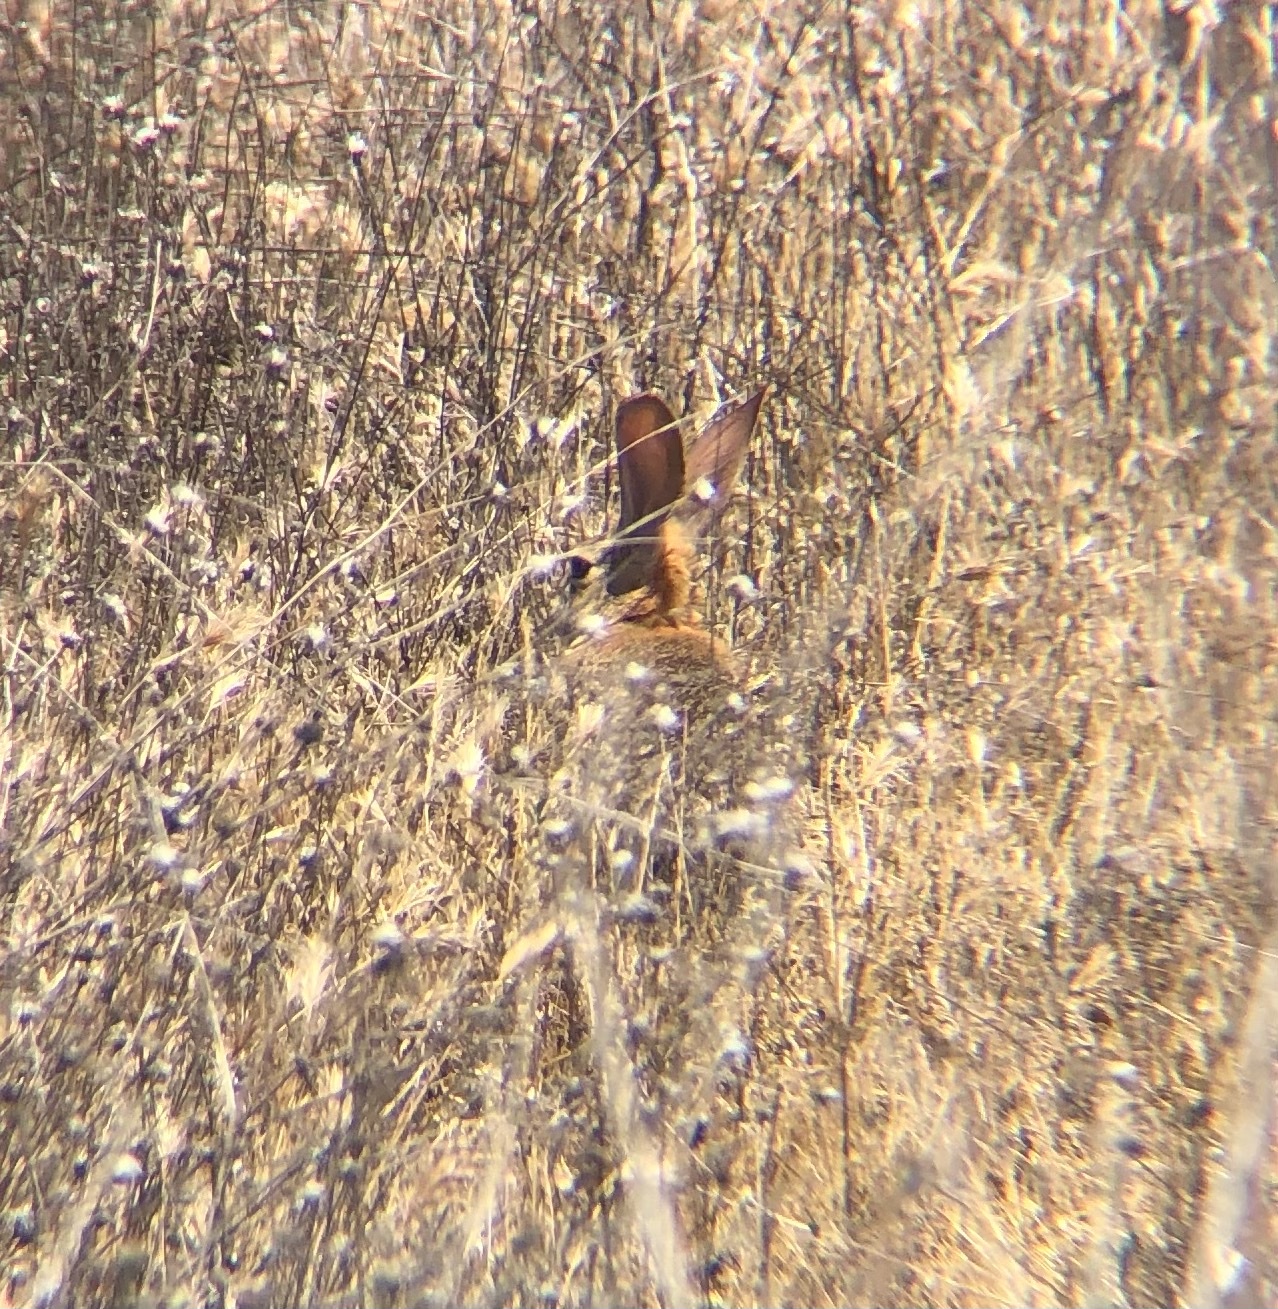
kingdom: Animalia
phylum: Chordata
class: Mammalia
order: Lagomorpha
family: Leporidae
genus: Sylvilagus
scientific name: Sylvilagus audubonii
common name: Desert cottontail
